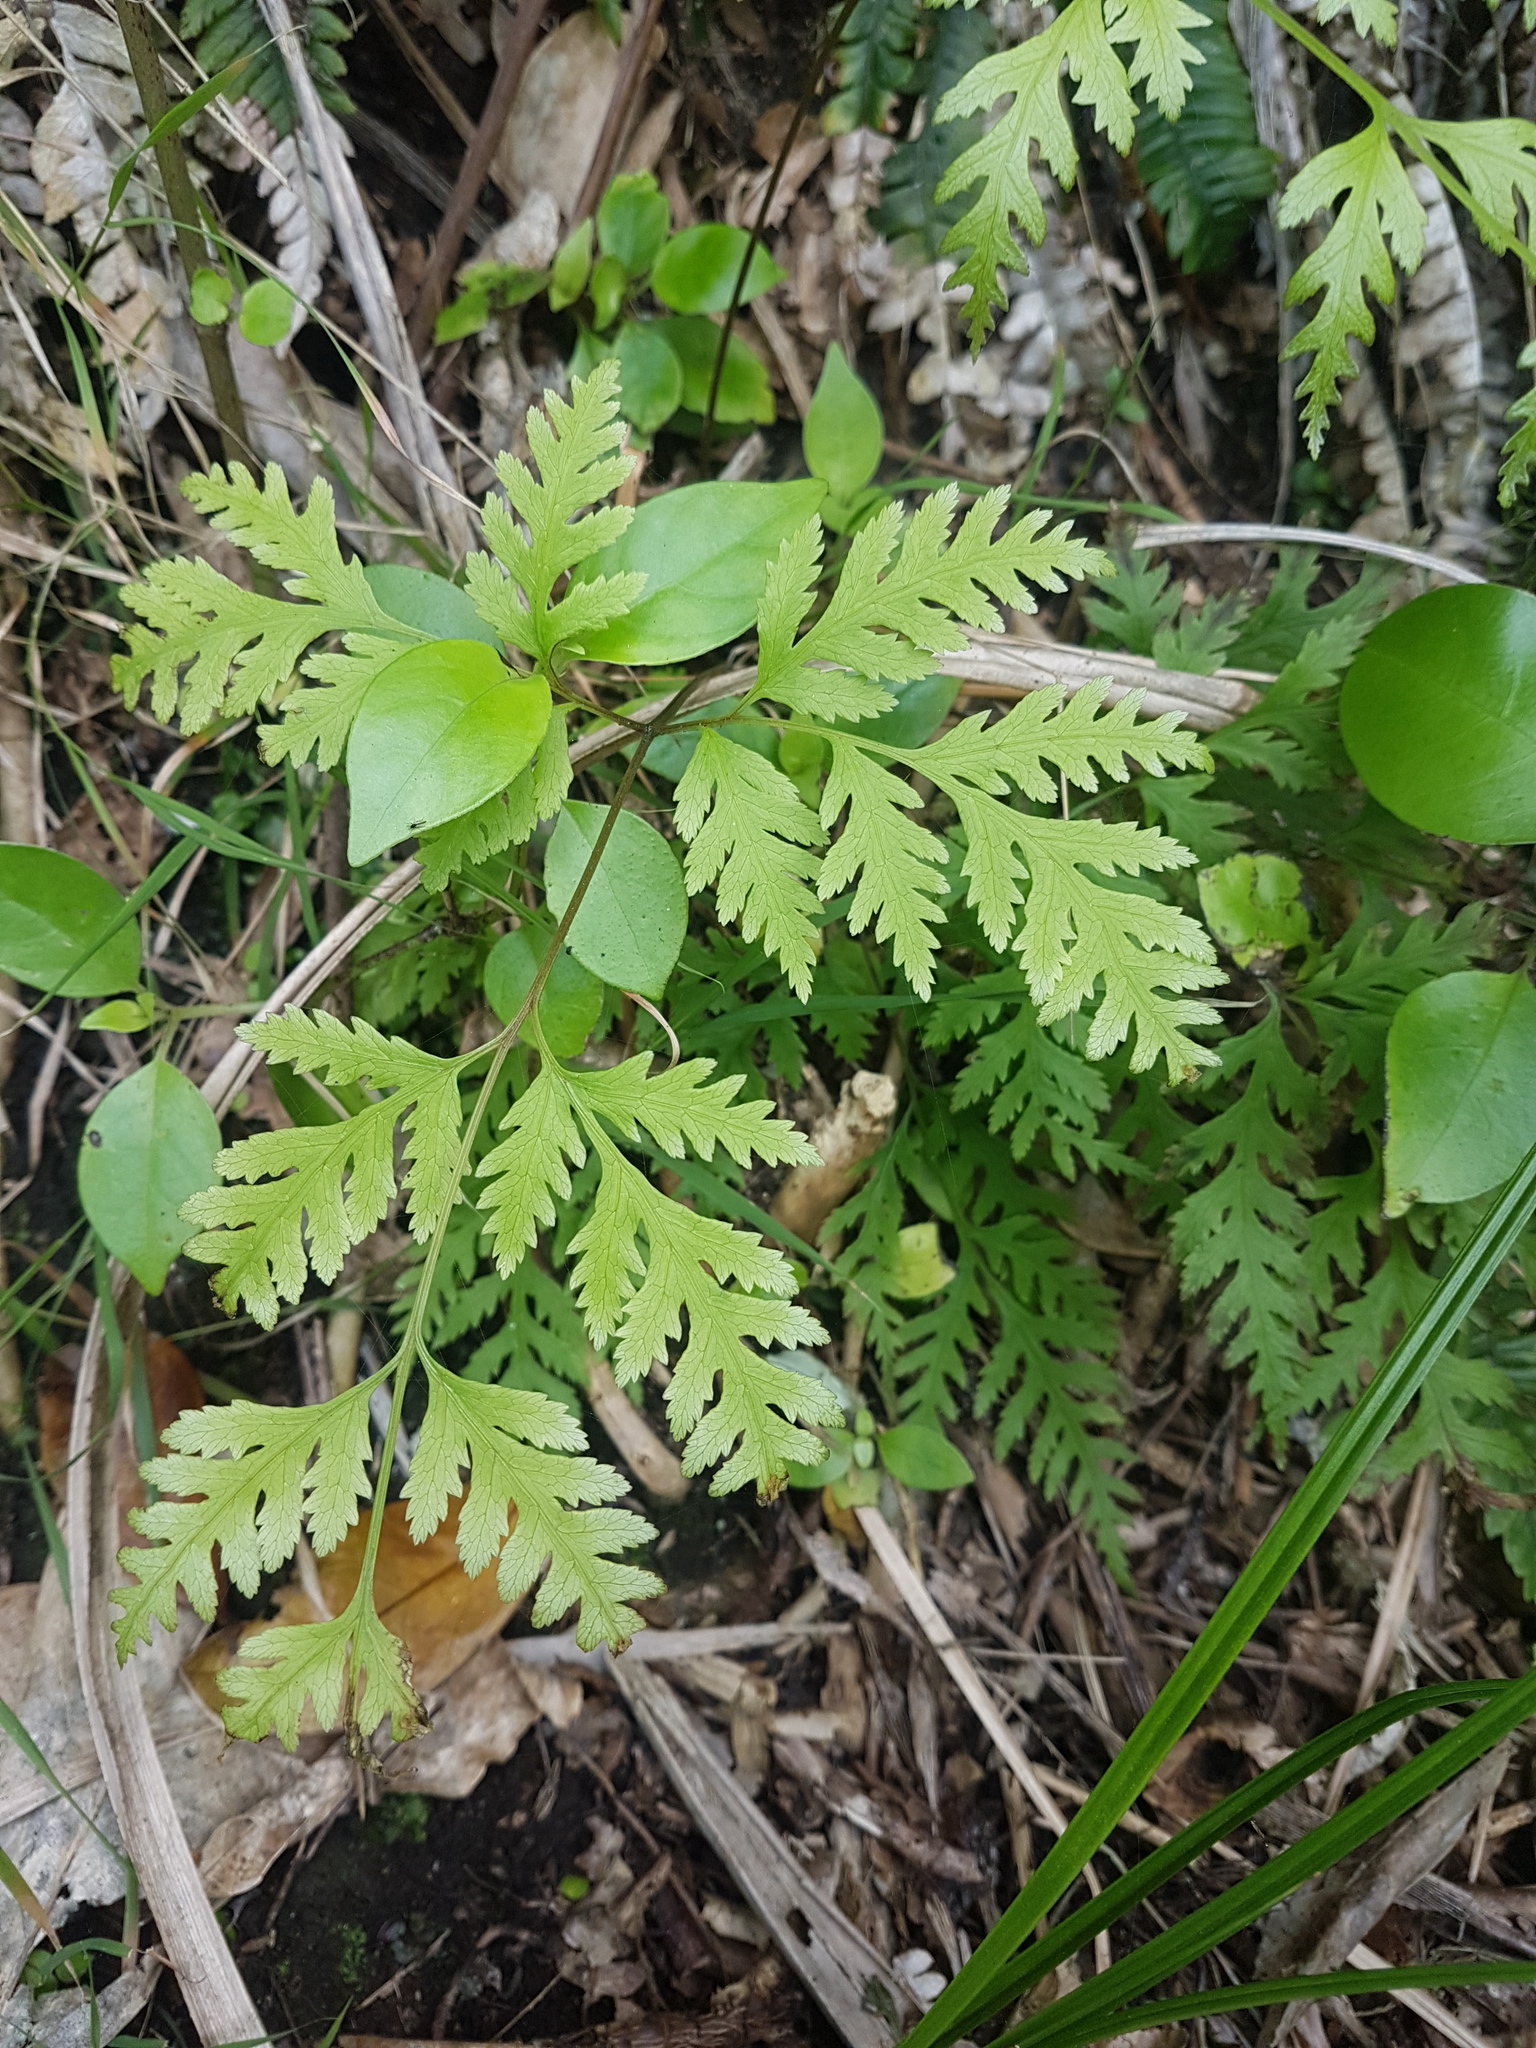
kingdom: Plantae
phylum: Tracheophyta
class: Polypodiopsida
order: Polypodiales
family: Pteridaceae
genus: Pteris
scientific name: Pteris macilenta
